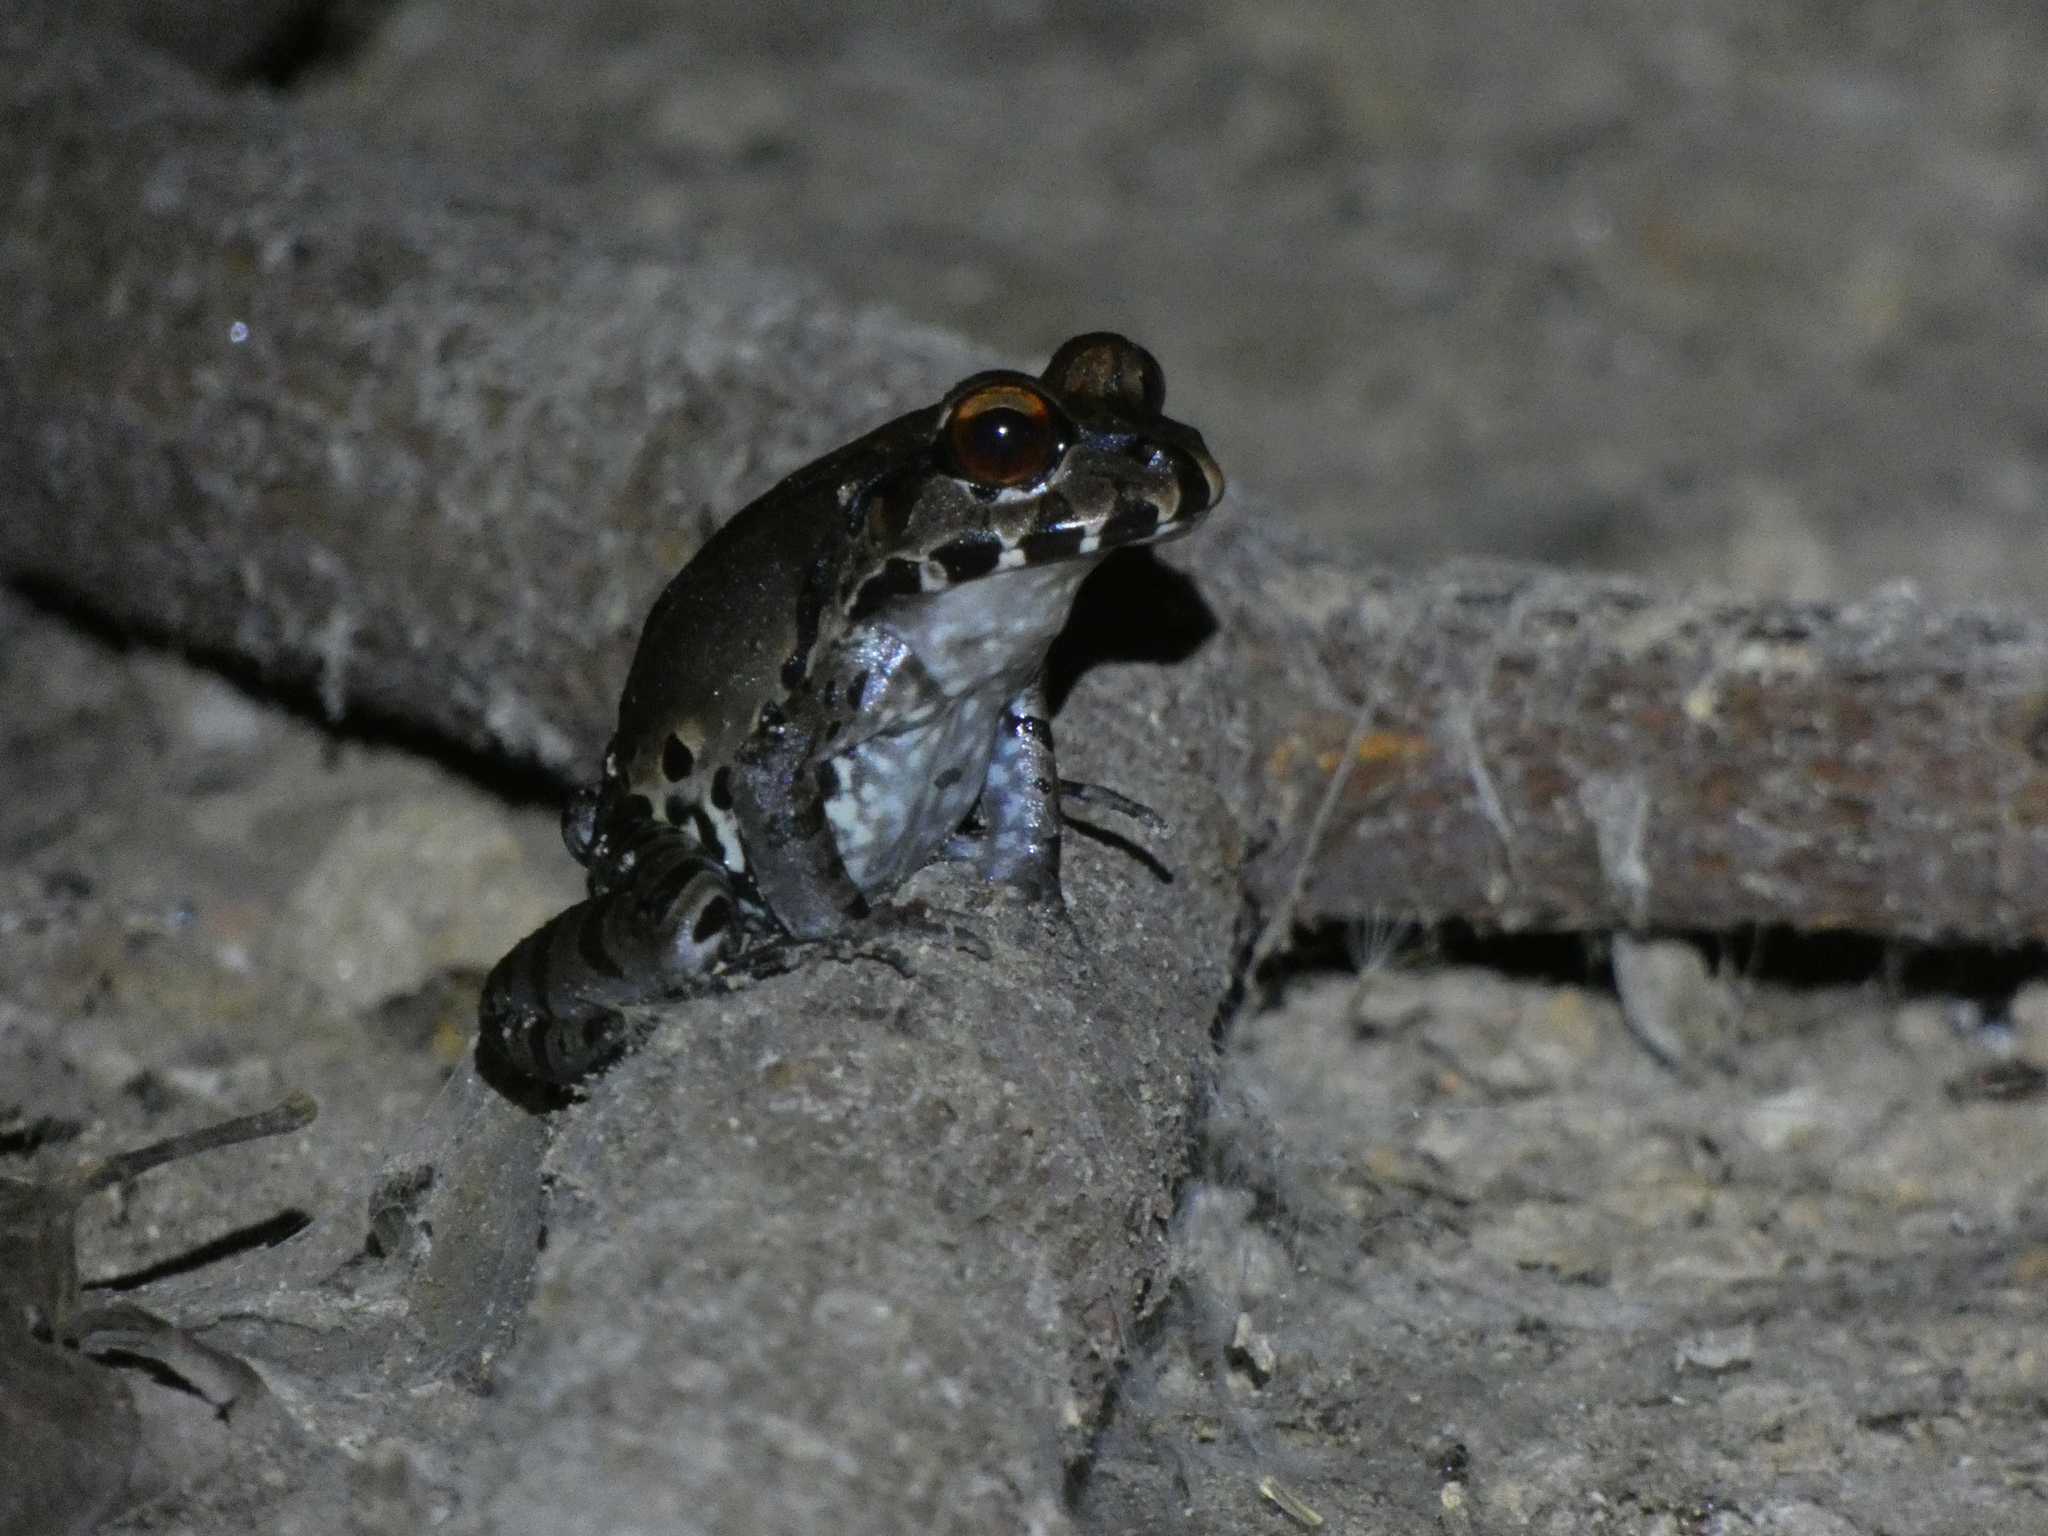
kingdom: Animalia
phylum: Chordata
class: Amphibia
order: Anura
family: Leptodactylidae
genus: Leptodactylus
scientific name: Leptodactylus pentadactylus
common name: Smoky jungle frog
